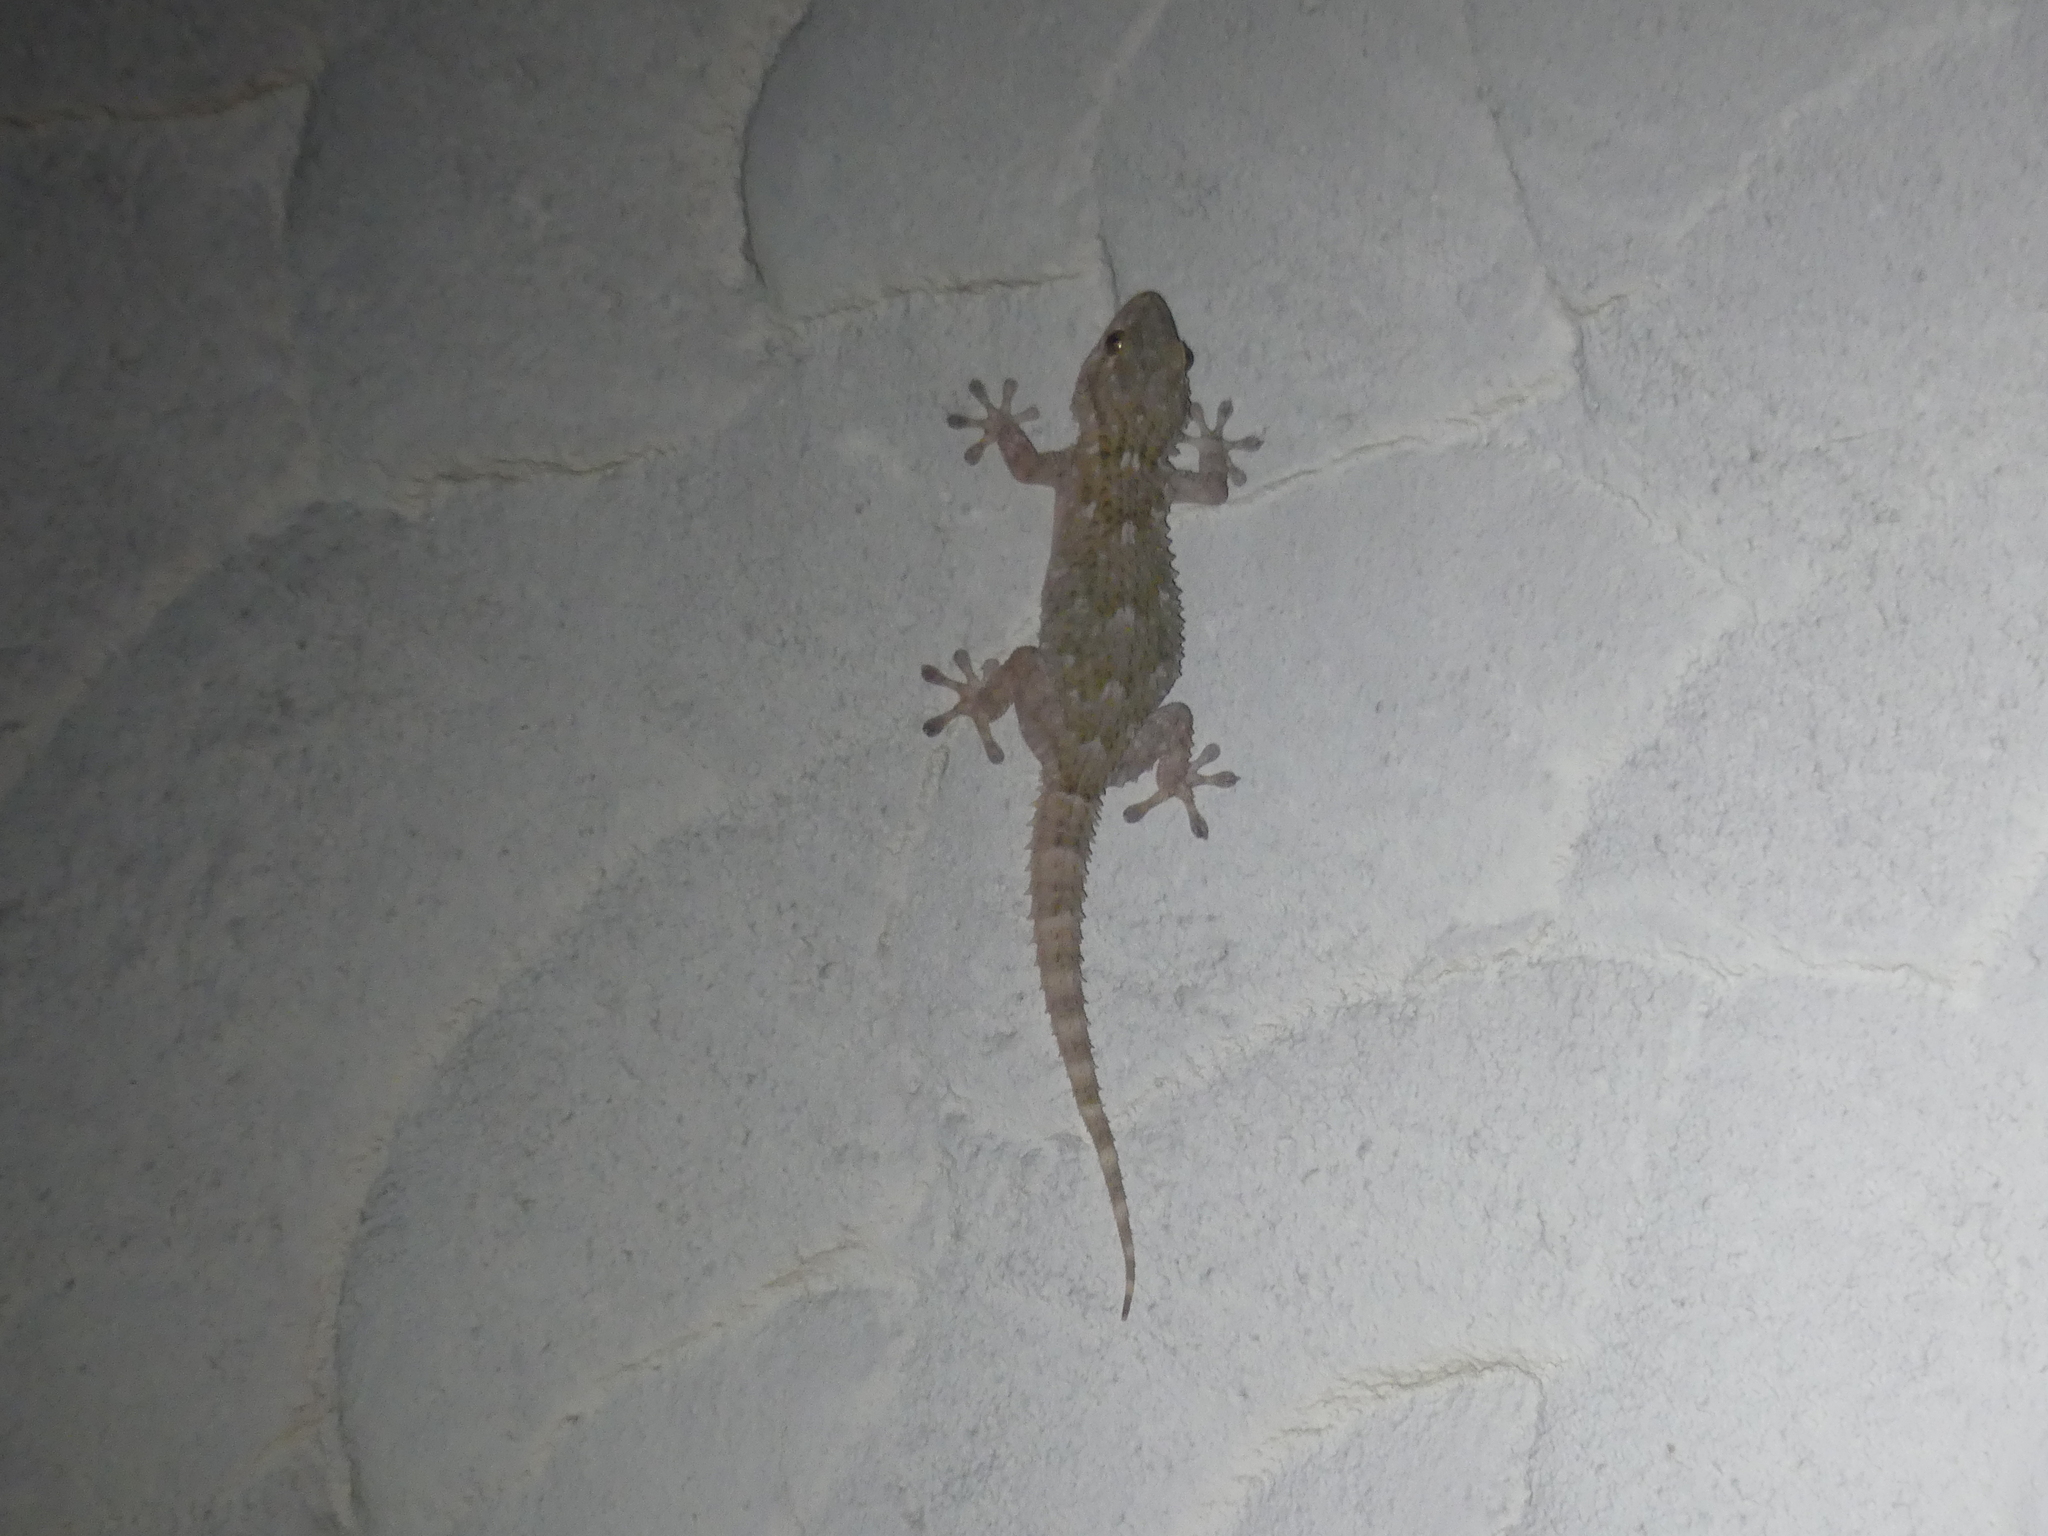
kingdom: Animalia
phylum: Chordata
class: Squamata
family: Phyllodactylidae
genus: Tarentola
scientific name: Tarentola mauritanica
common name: Moorish gecko
